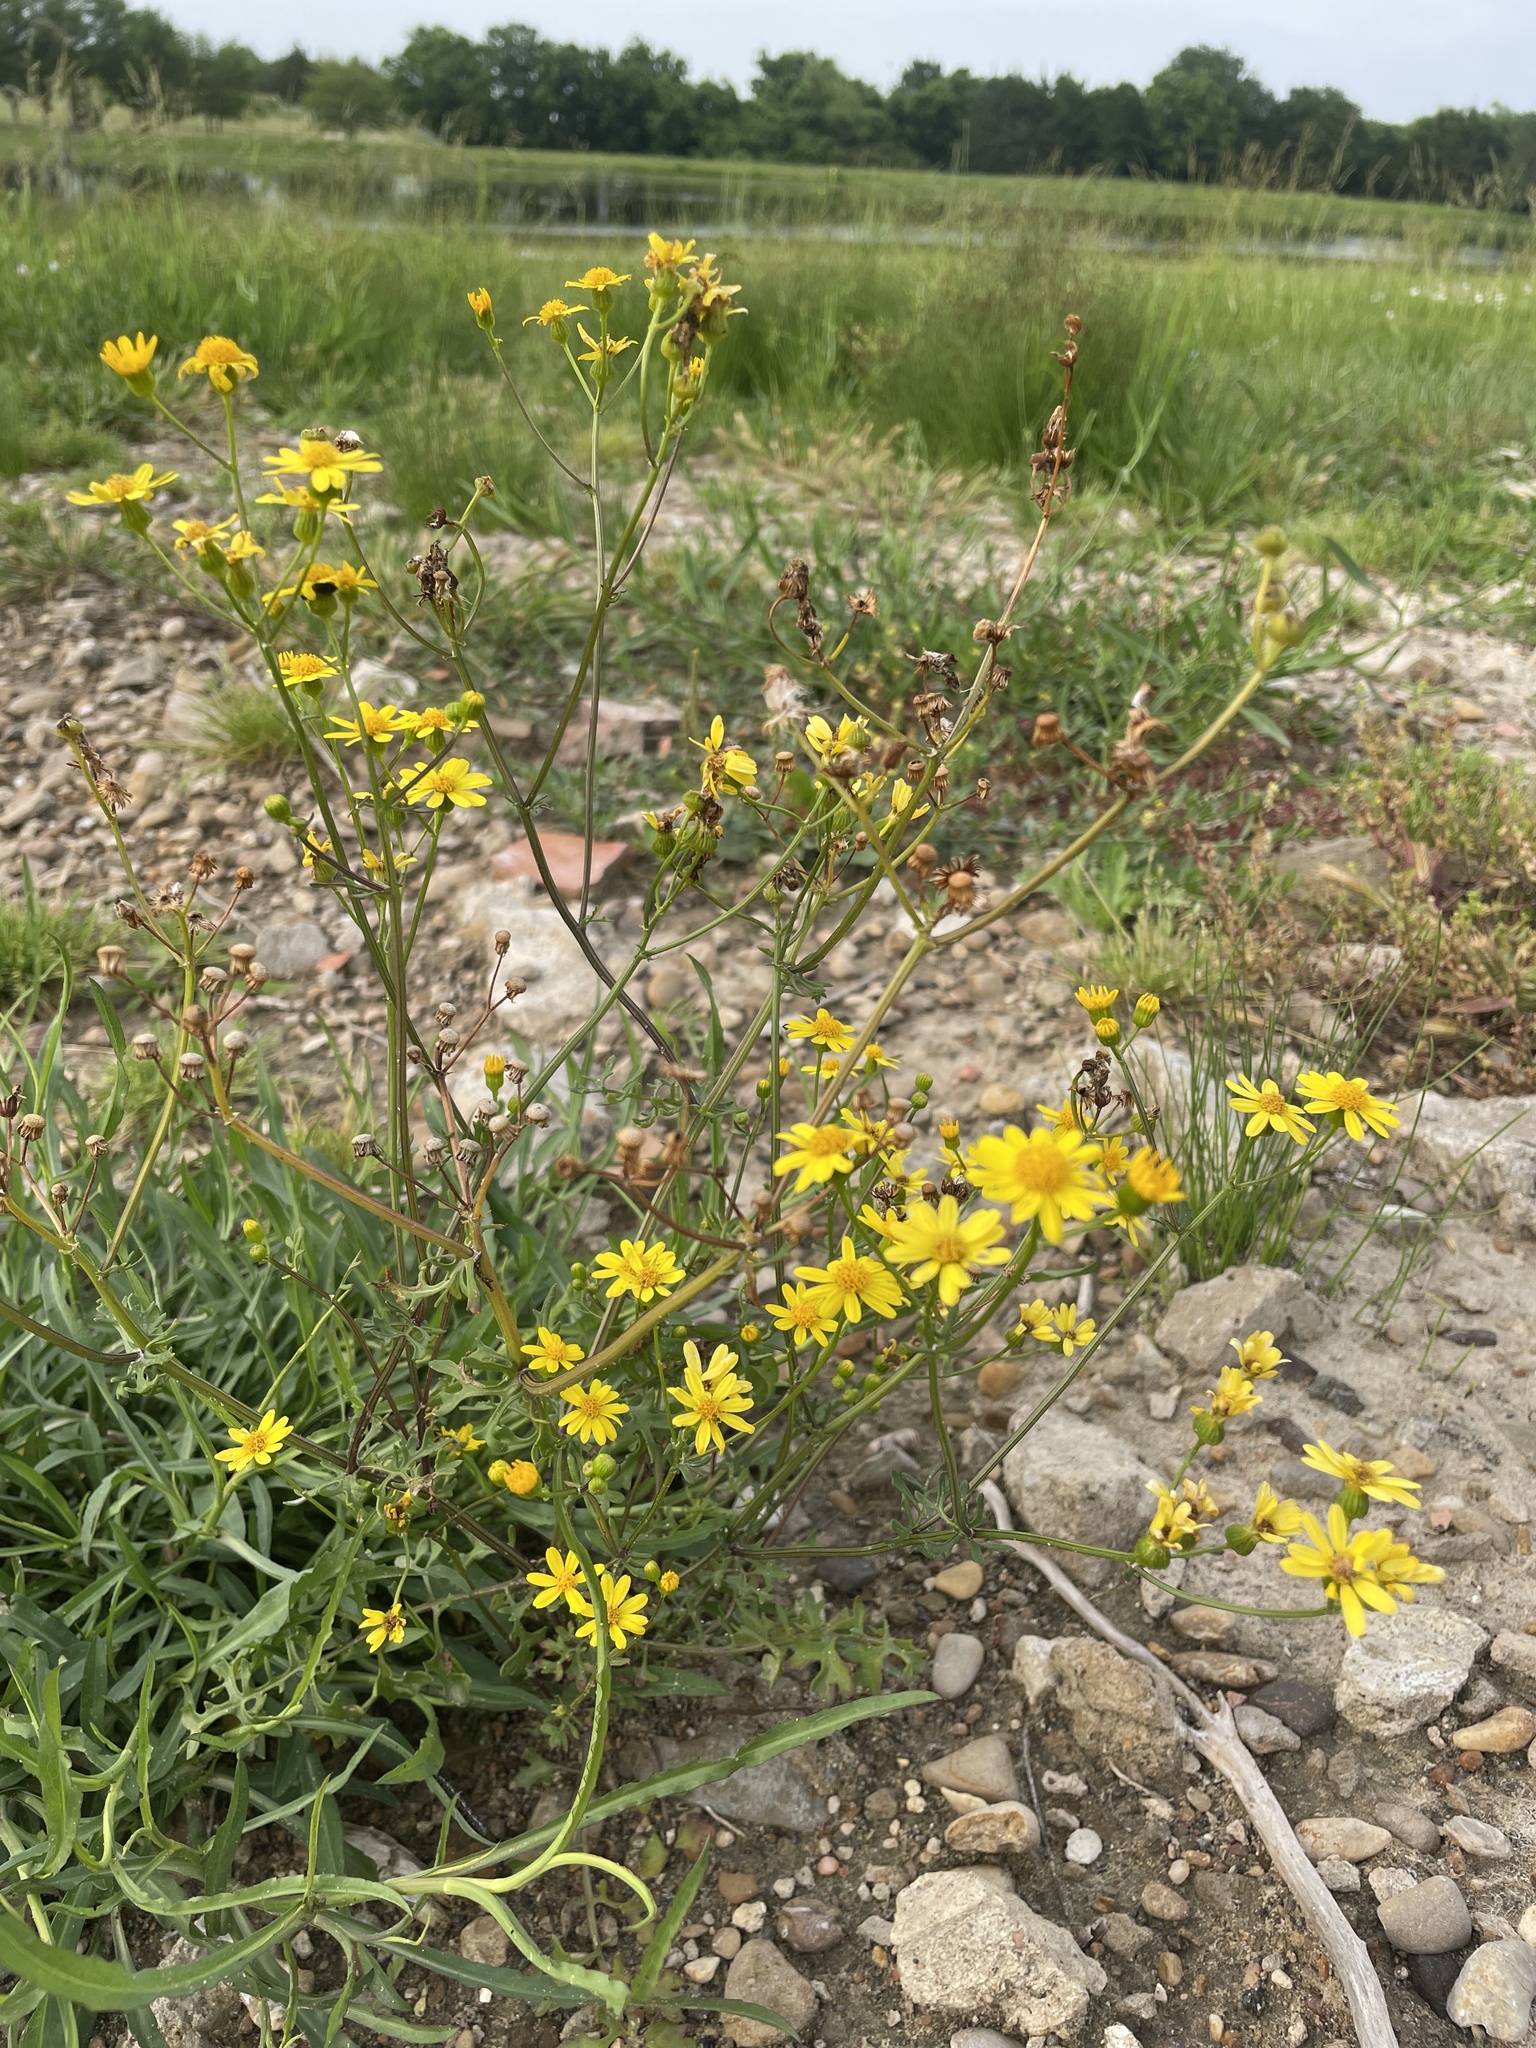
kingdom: Plantae
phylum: Tracheophyta
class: Magnoliopsida
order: Asterales
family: Asteraceae
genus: Packera
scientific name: Packera tampicana
